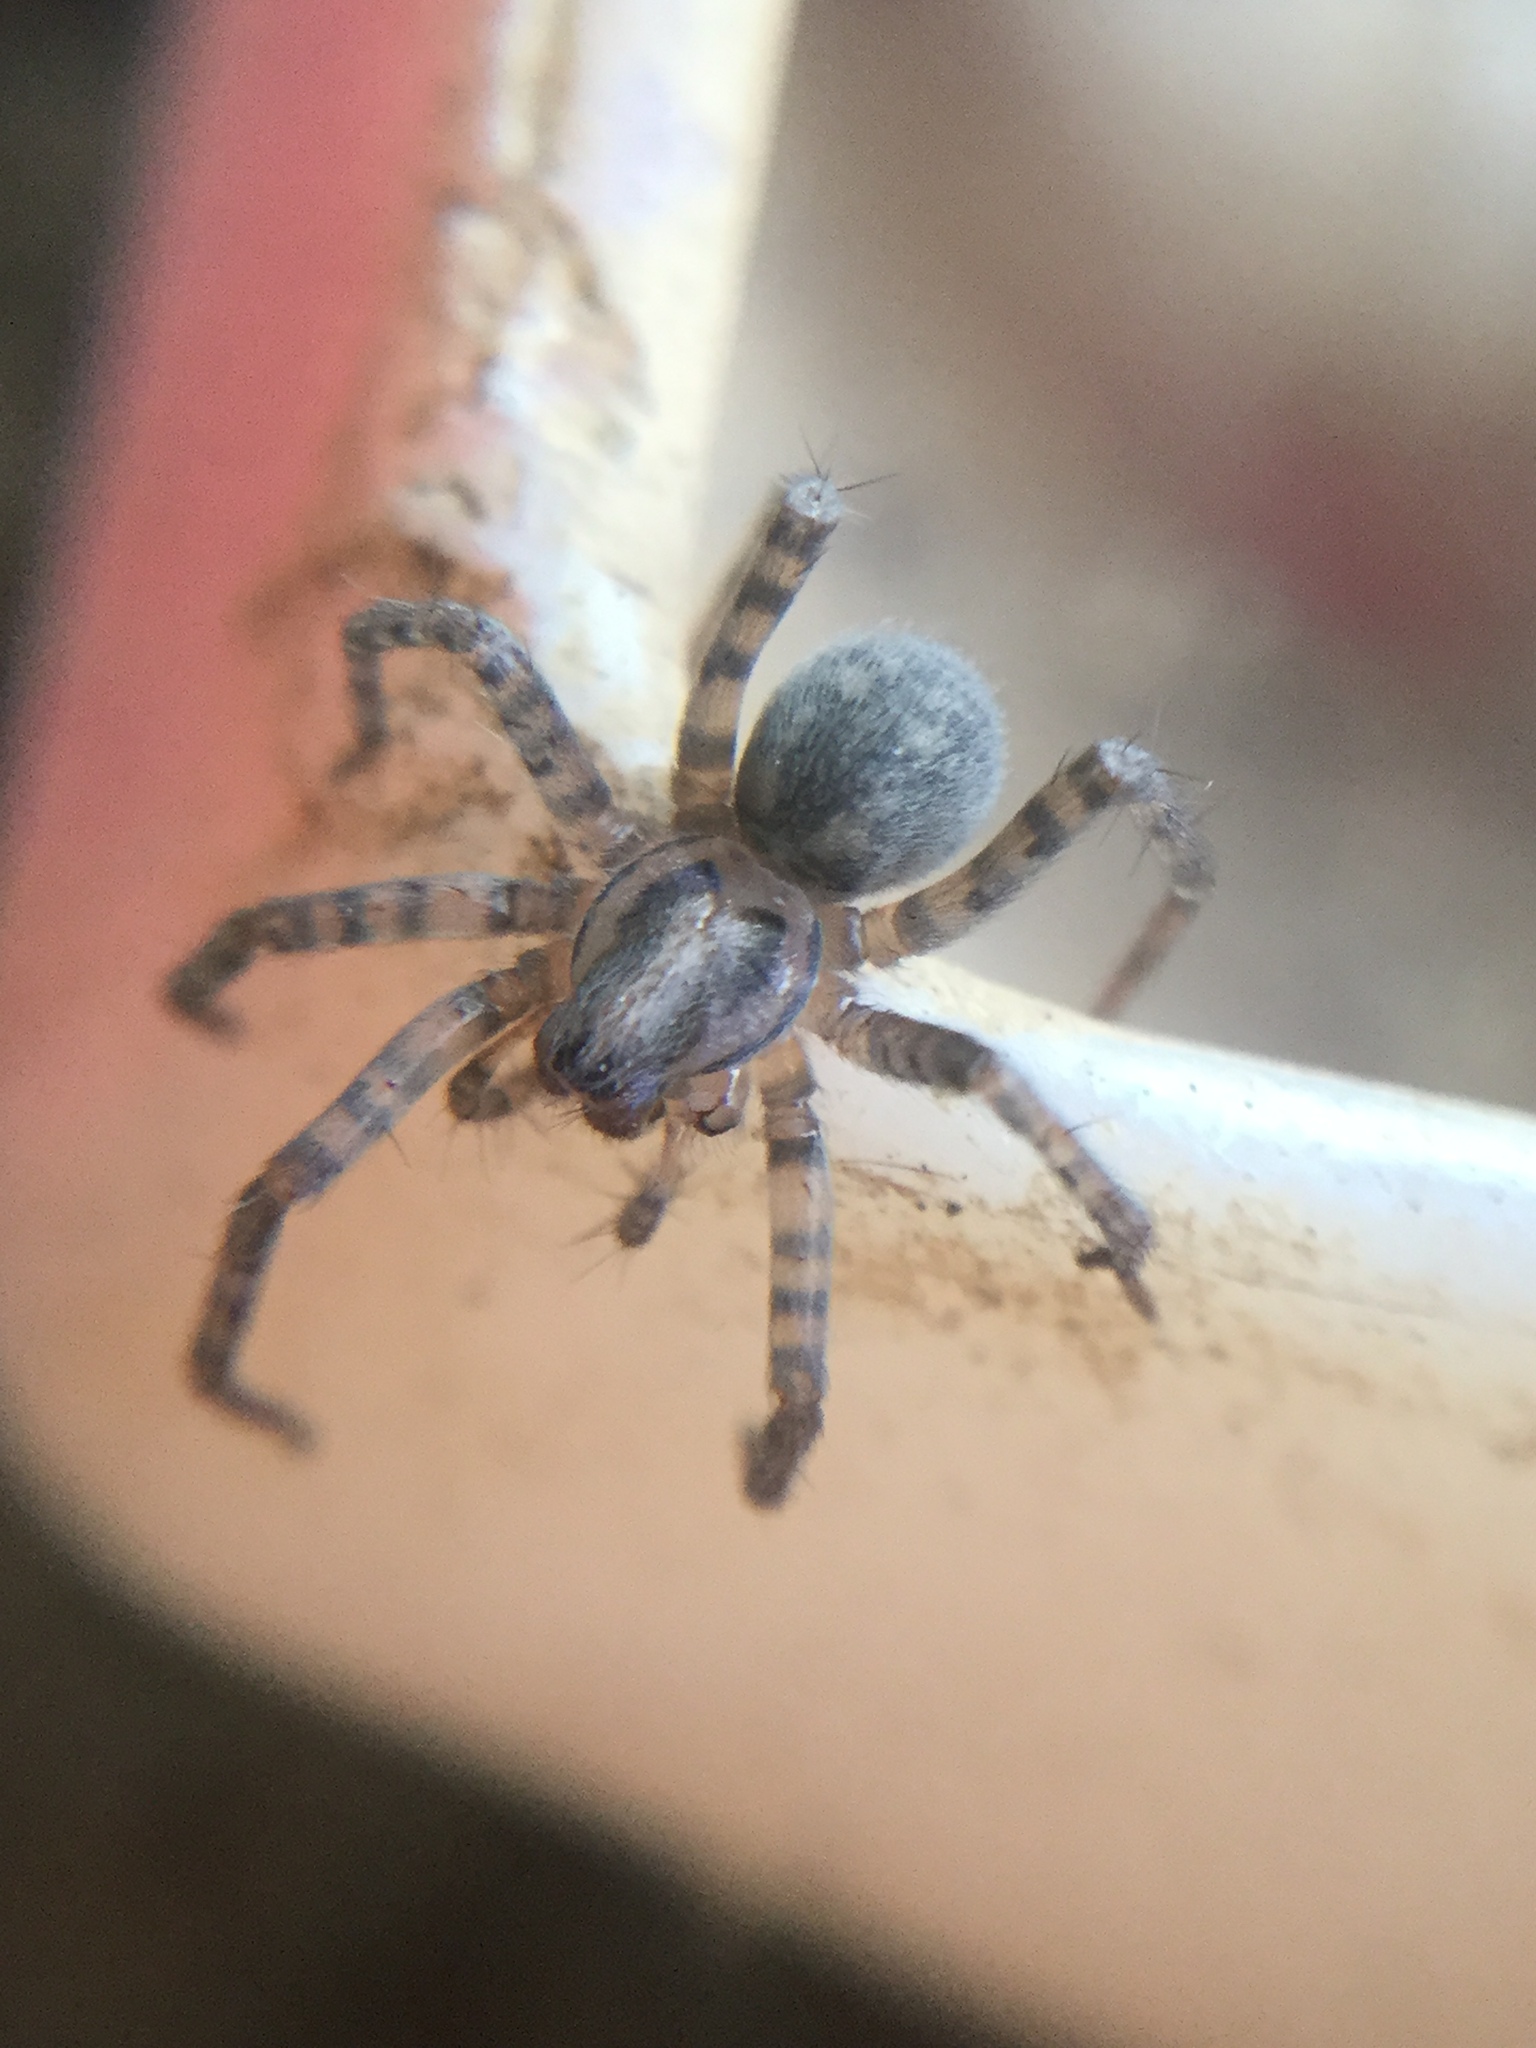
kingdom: Animalia
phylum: Arthropoda
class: Arachnida
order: Araneae
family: Agelenidae
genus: Tegenaria
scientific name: Tegenaria domestica
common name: Barn funnel weaver
